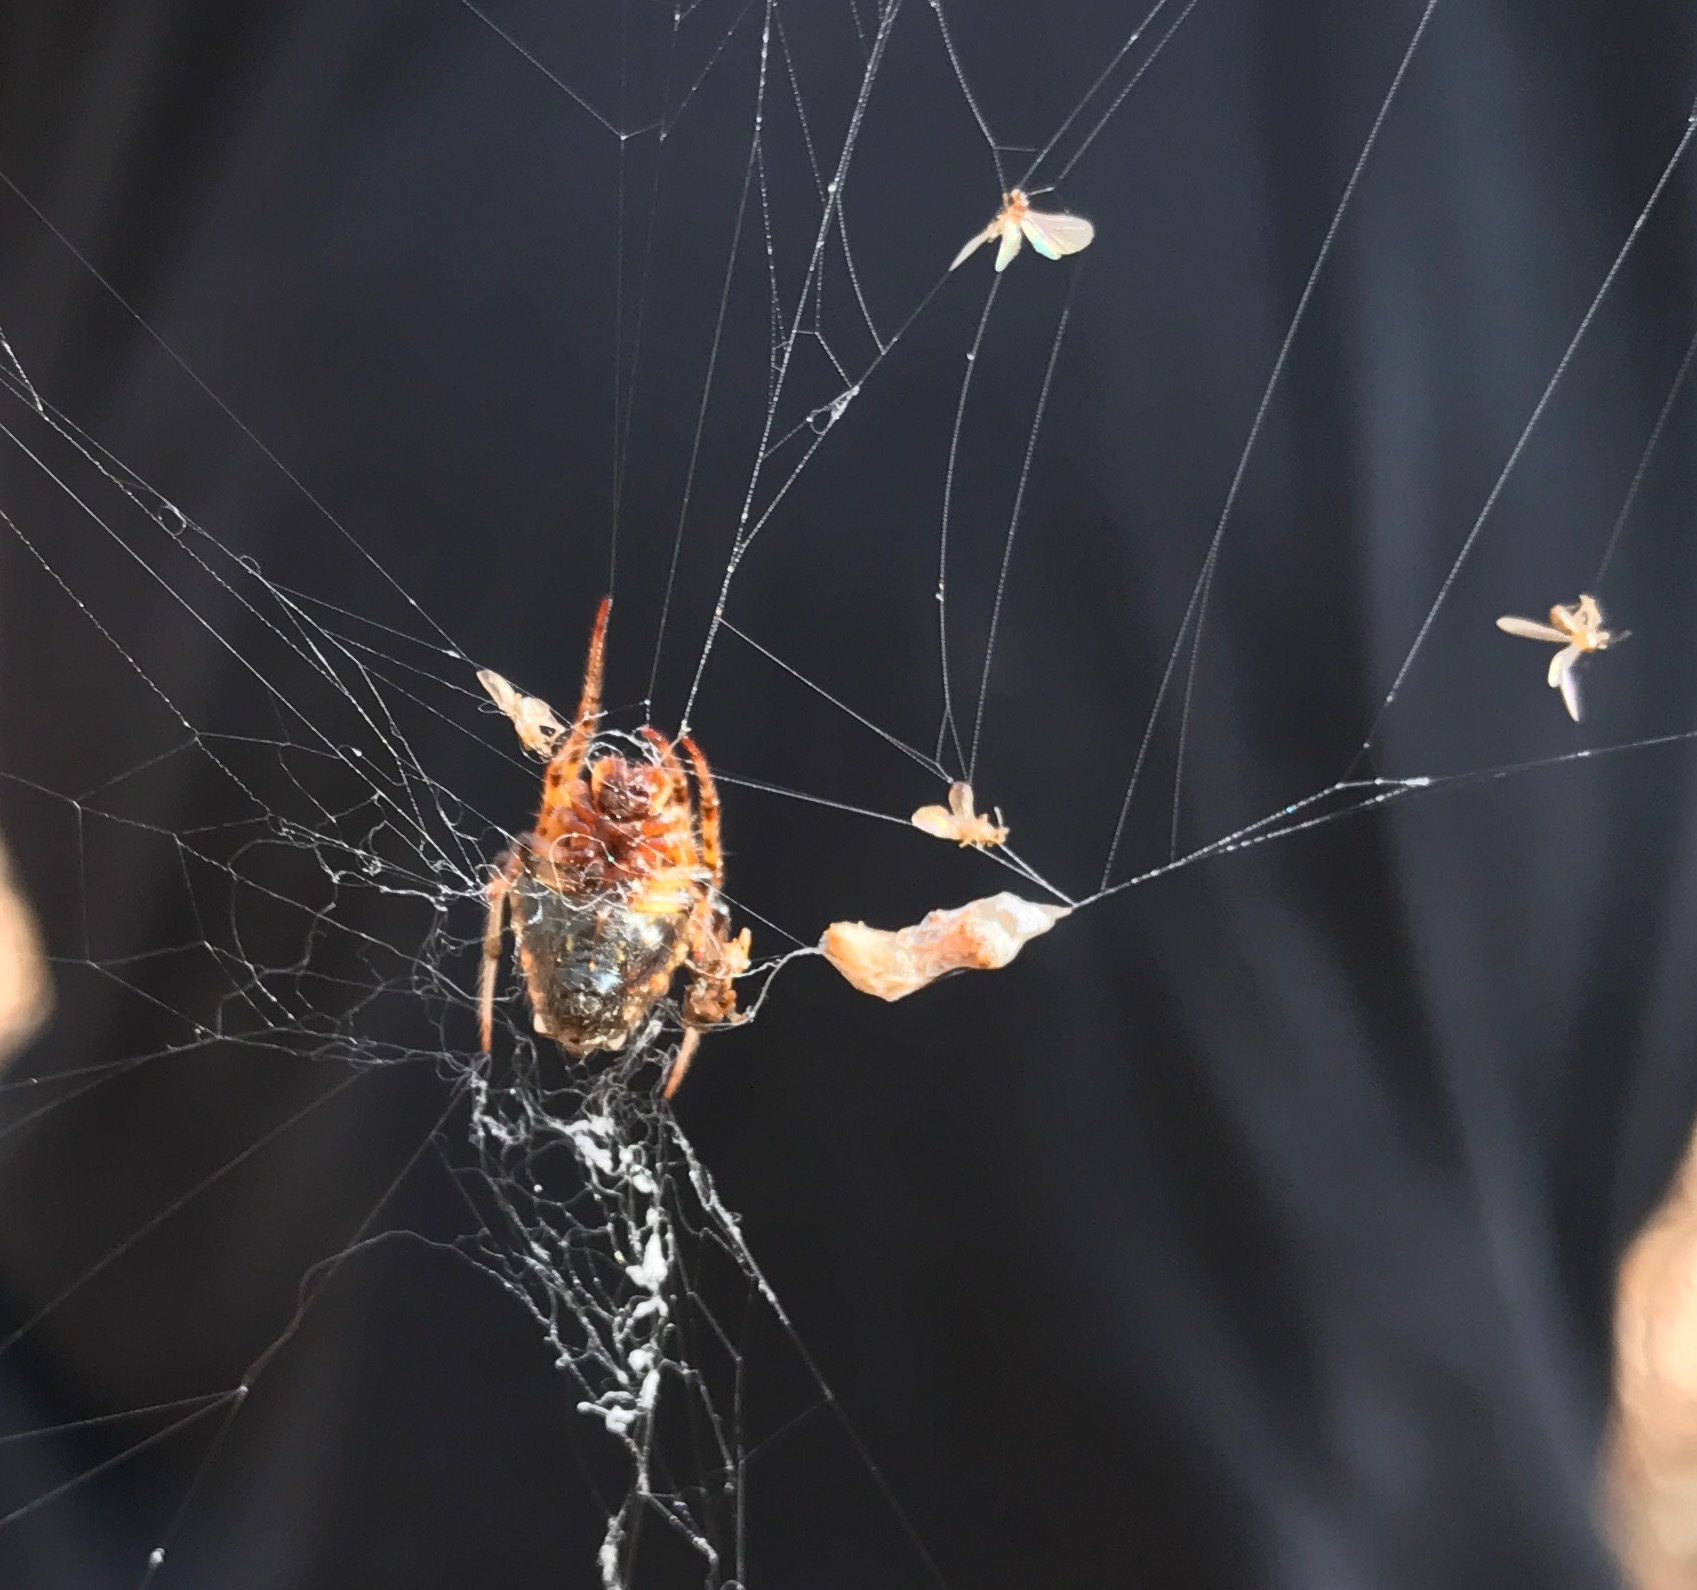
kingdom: Animalia
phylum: Arthropoda
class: Arachnida
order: Araneae
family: Araneidae
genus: Verrucosa
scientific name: Verrucosa arenata
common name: Orb weavers
